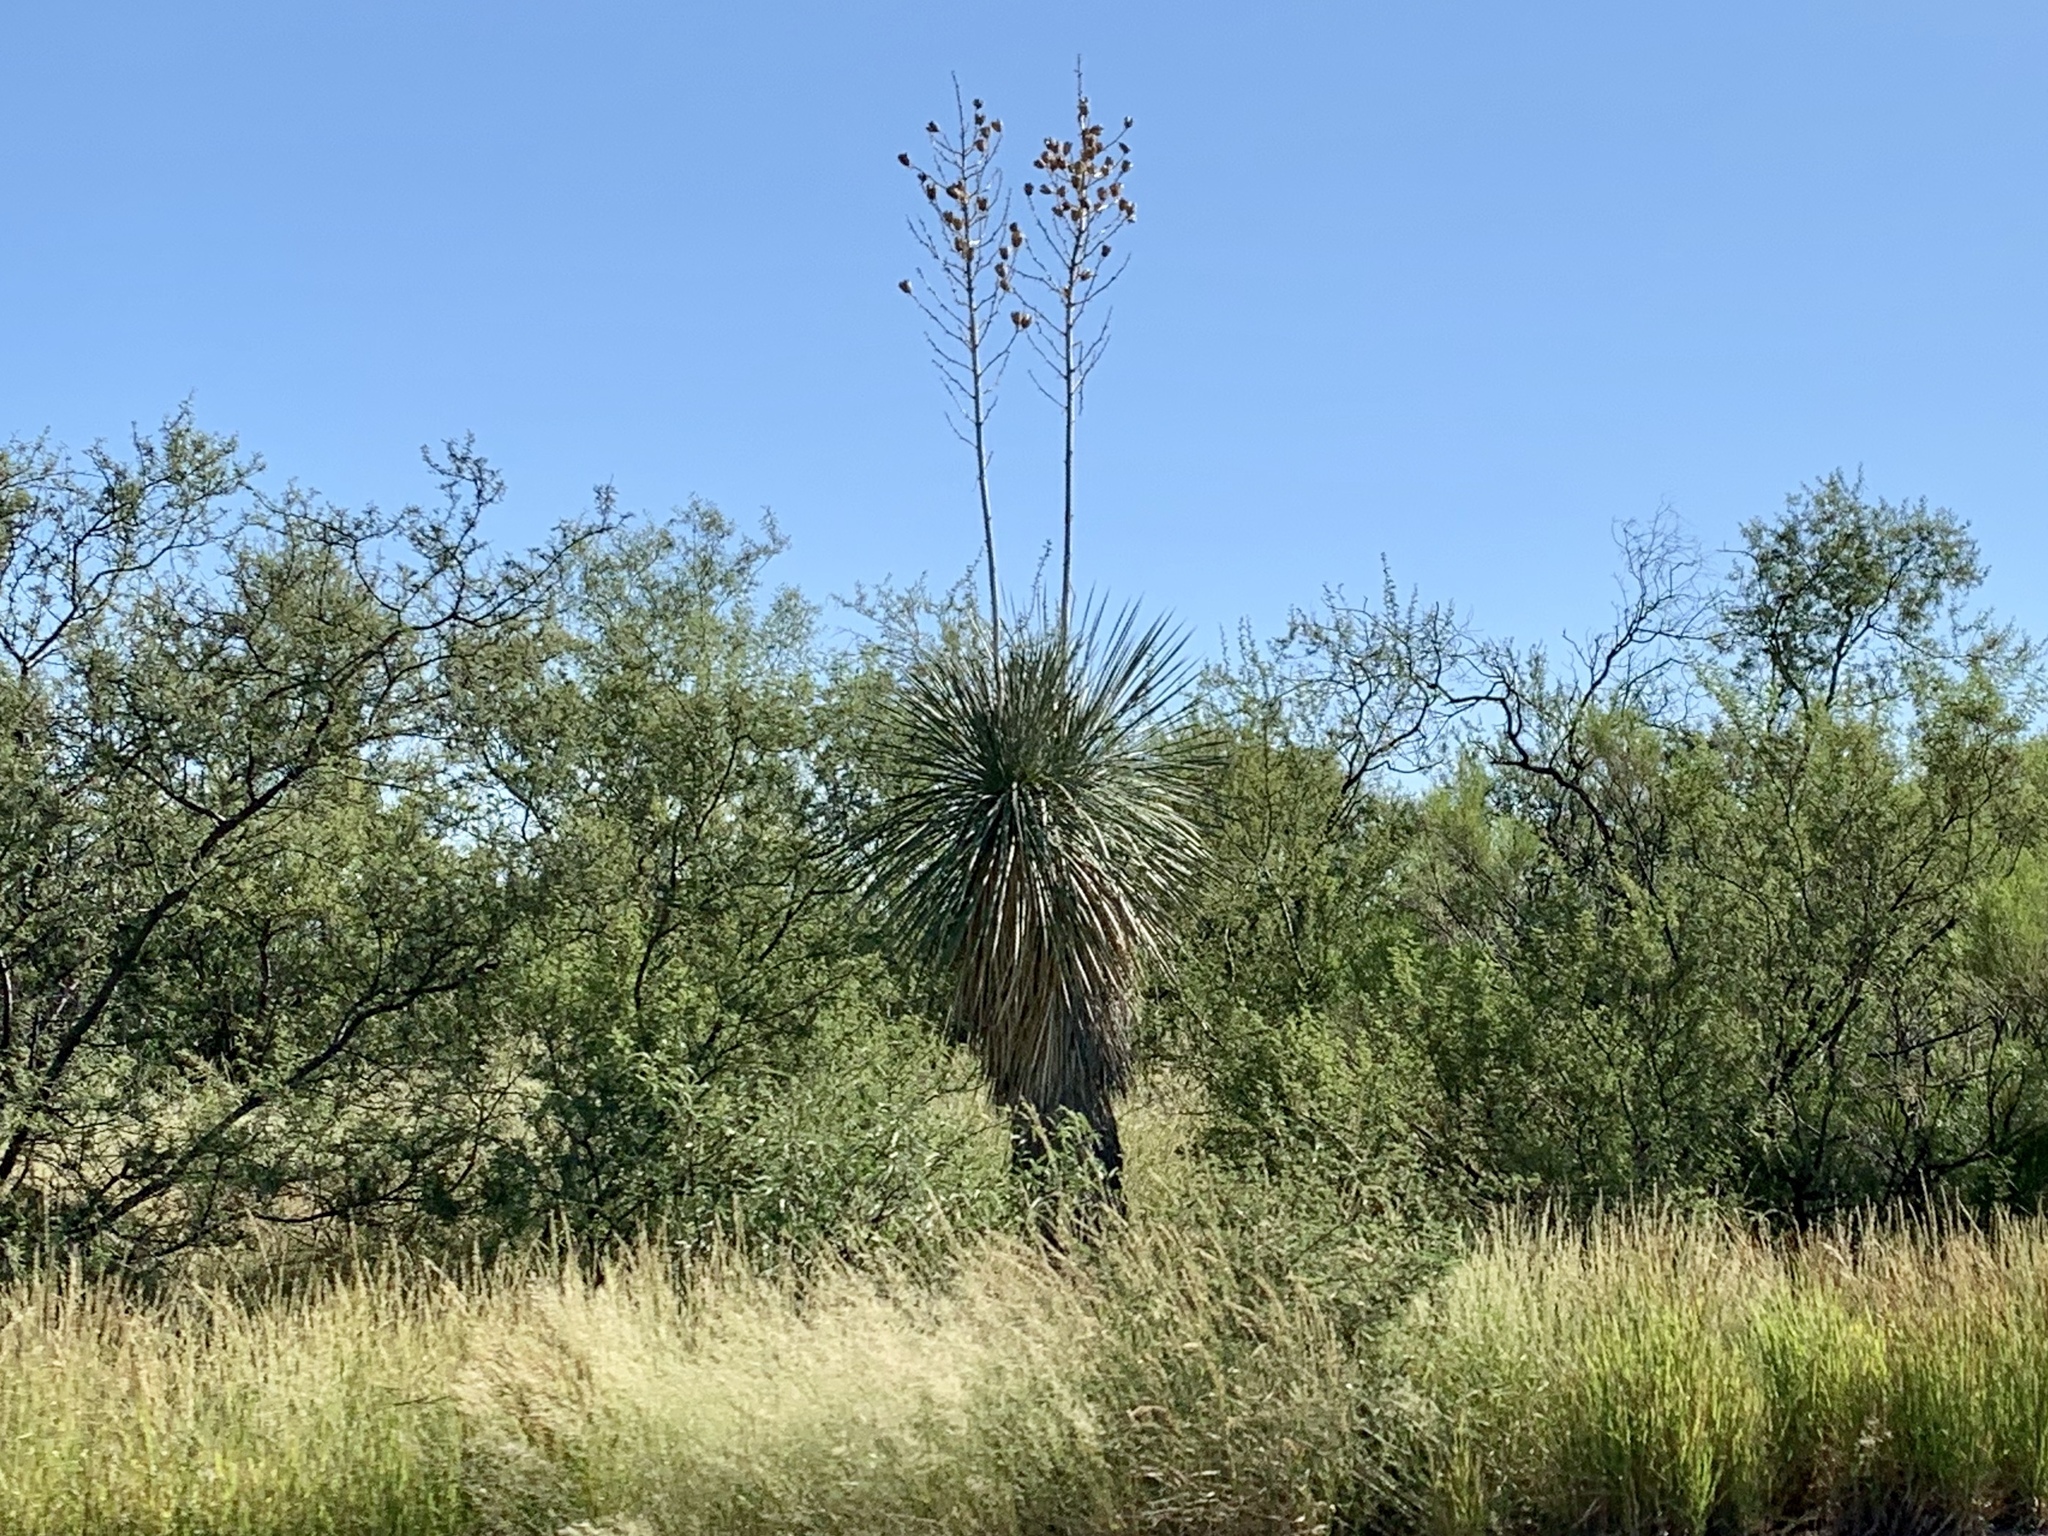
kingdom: Plantae
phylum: Tracheophyta
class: Liliopsida
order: Asparagales
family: Asparagaceae
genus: Yucca
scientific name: Yucca elata
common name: Palmella
